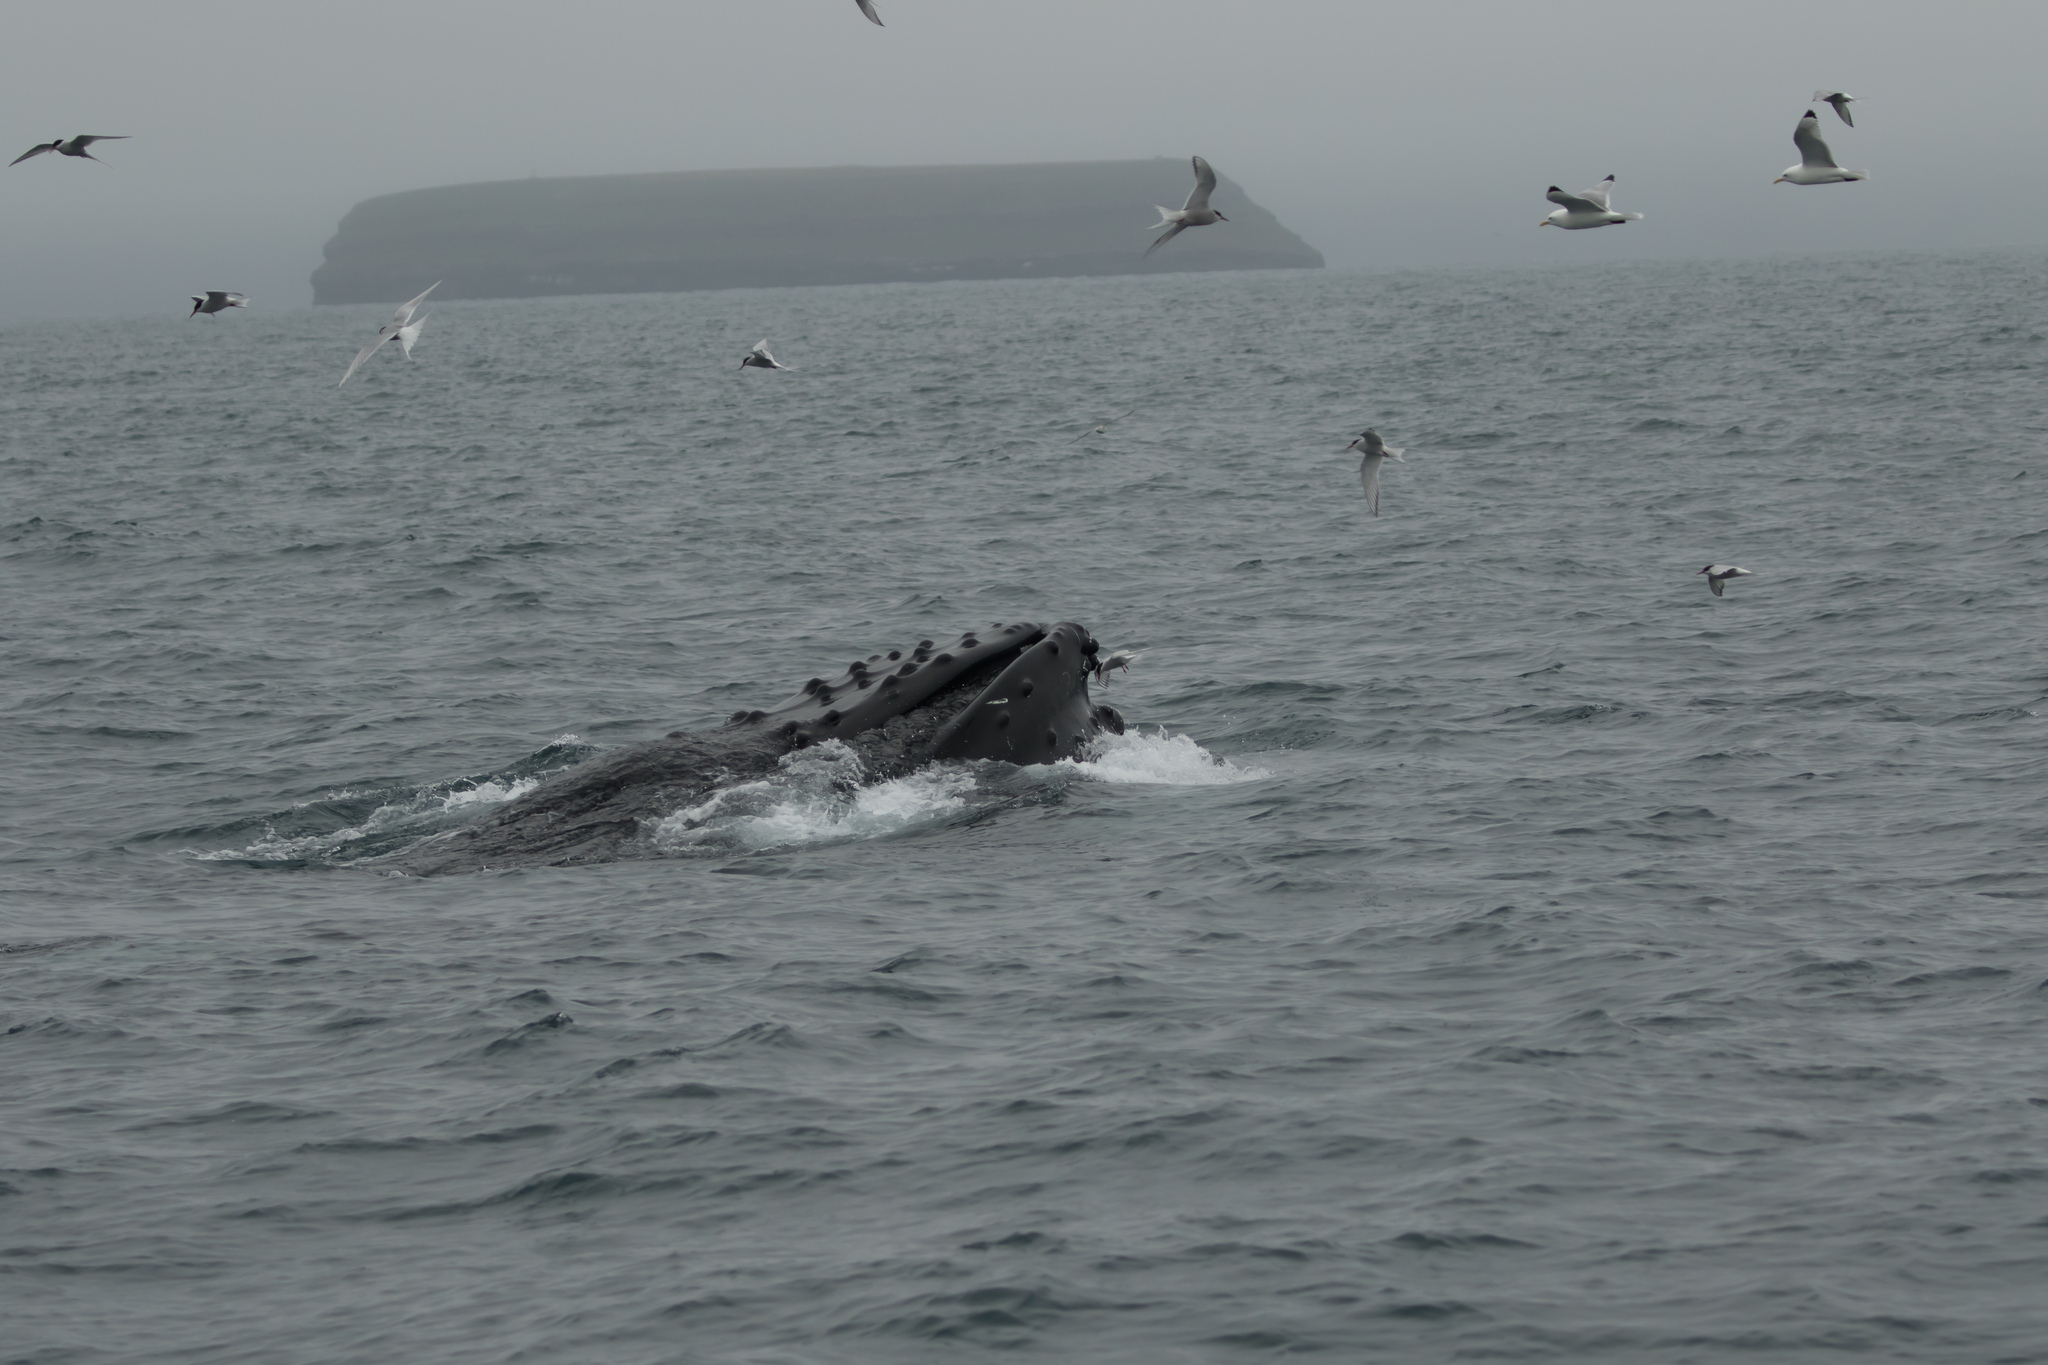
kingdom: Animalia
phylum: Chordata
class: Mammalia
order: Cetacea
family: Balaenopteridae
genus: Megaptera
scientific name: Megaptera novaeangliae
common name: Humpback whale
